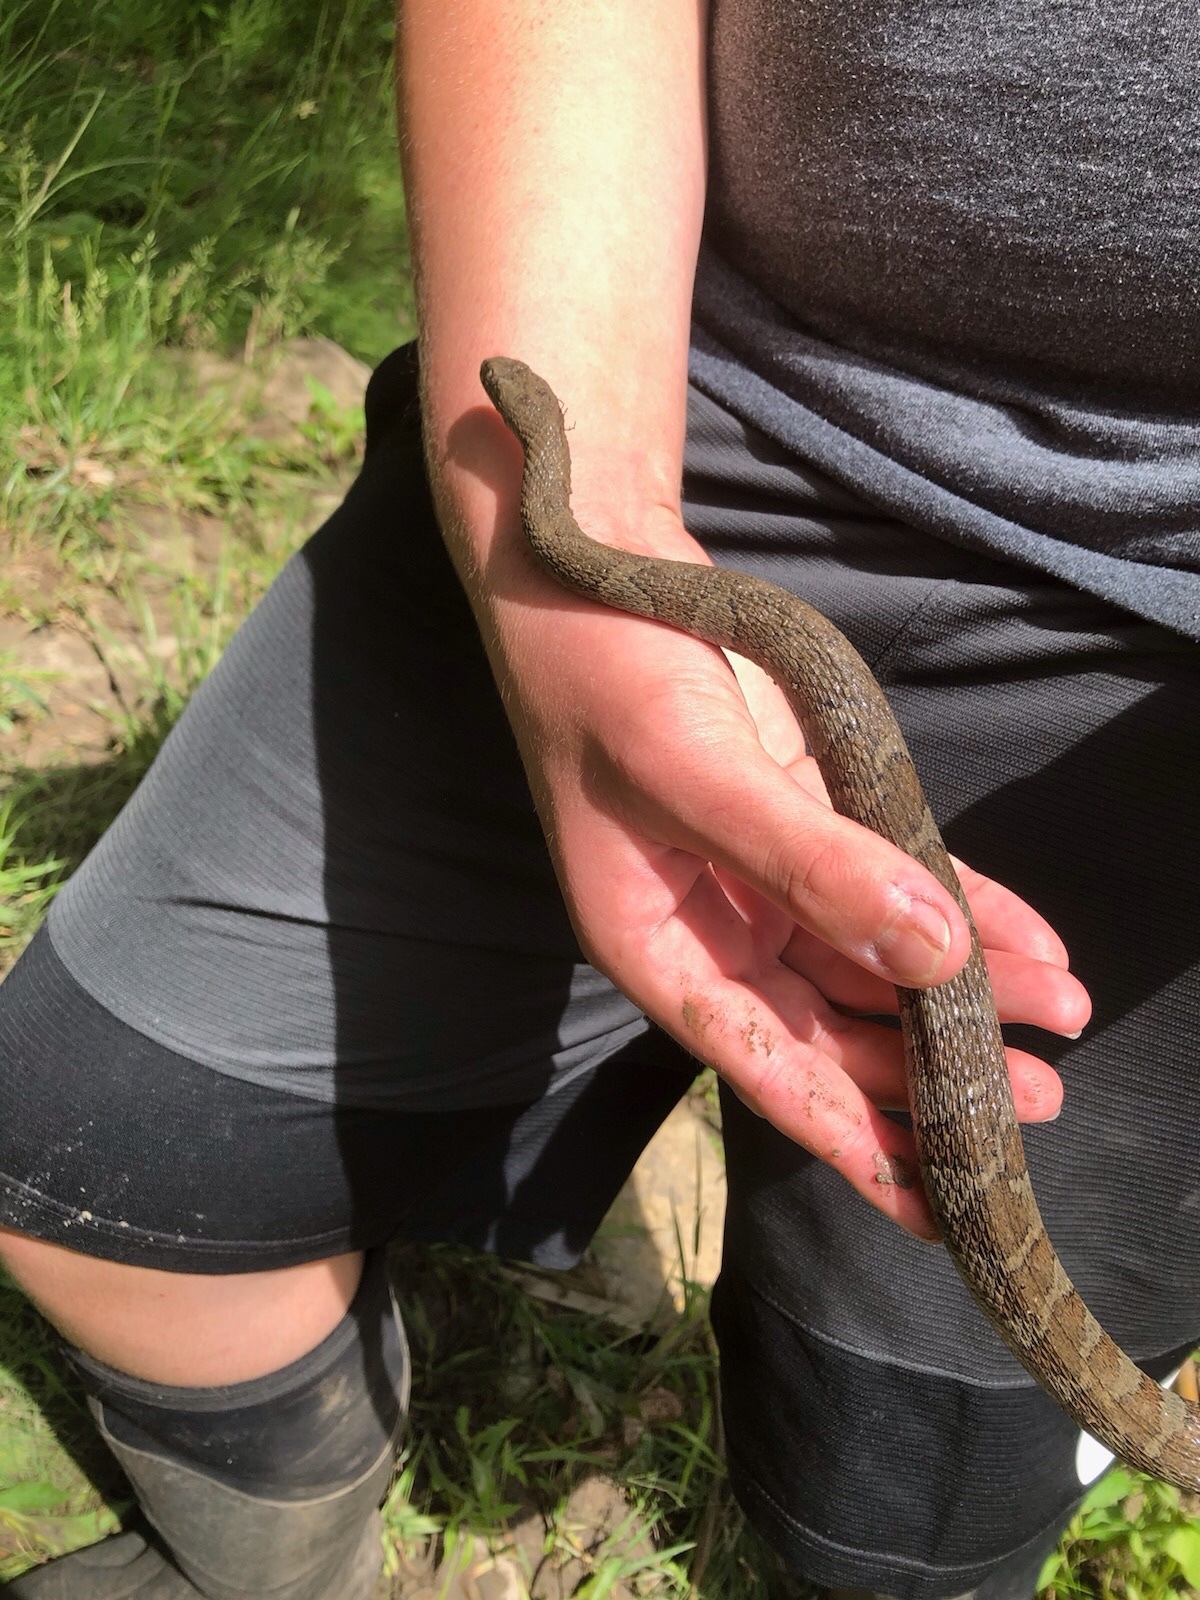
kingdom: Animalia
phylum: Chordata
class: Squamata
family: Colubridae
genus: Nerodia
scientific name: Nerodia sipedon
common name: Northern water snake
